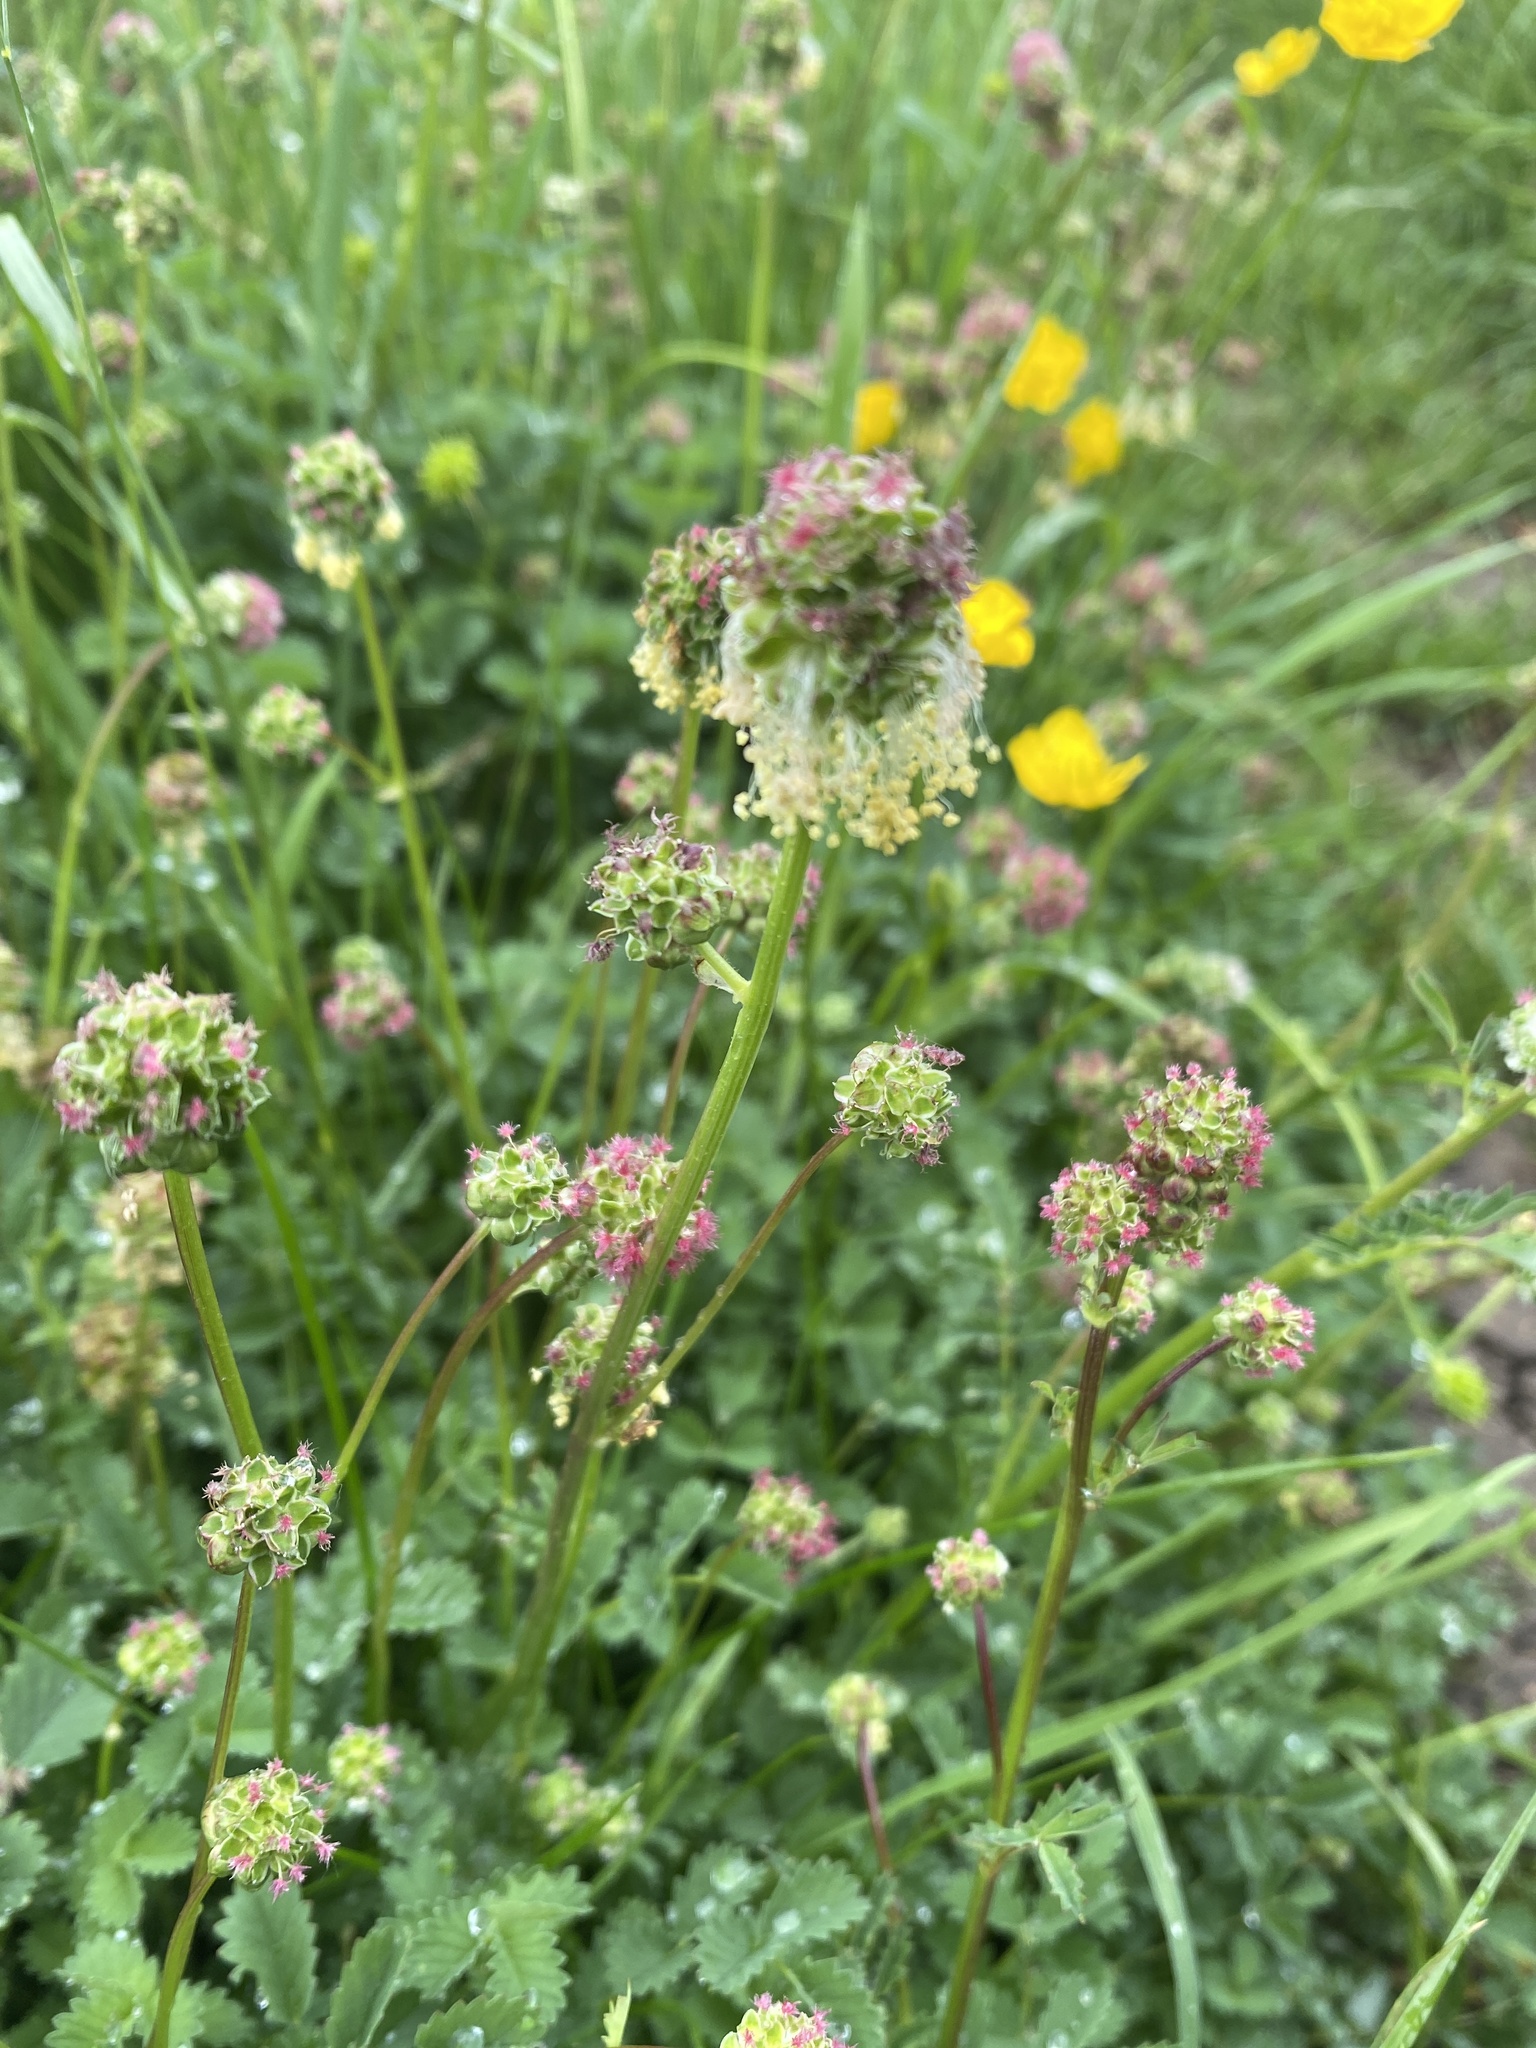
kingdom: Plantae
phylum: Tracheophyta
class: Magnoliopsida
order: Rosales
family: Rosaceae
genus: Poterium
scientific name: Poterium sanguisorba
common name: Salad burnet
